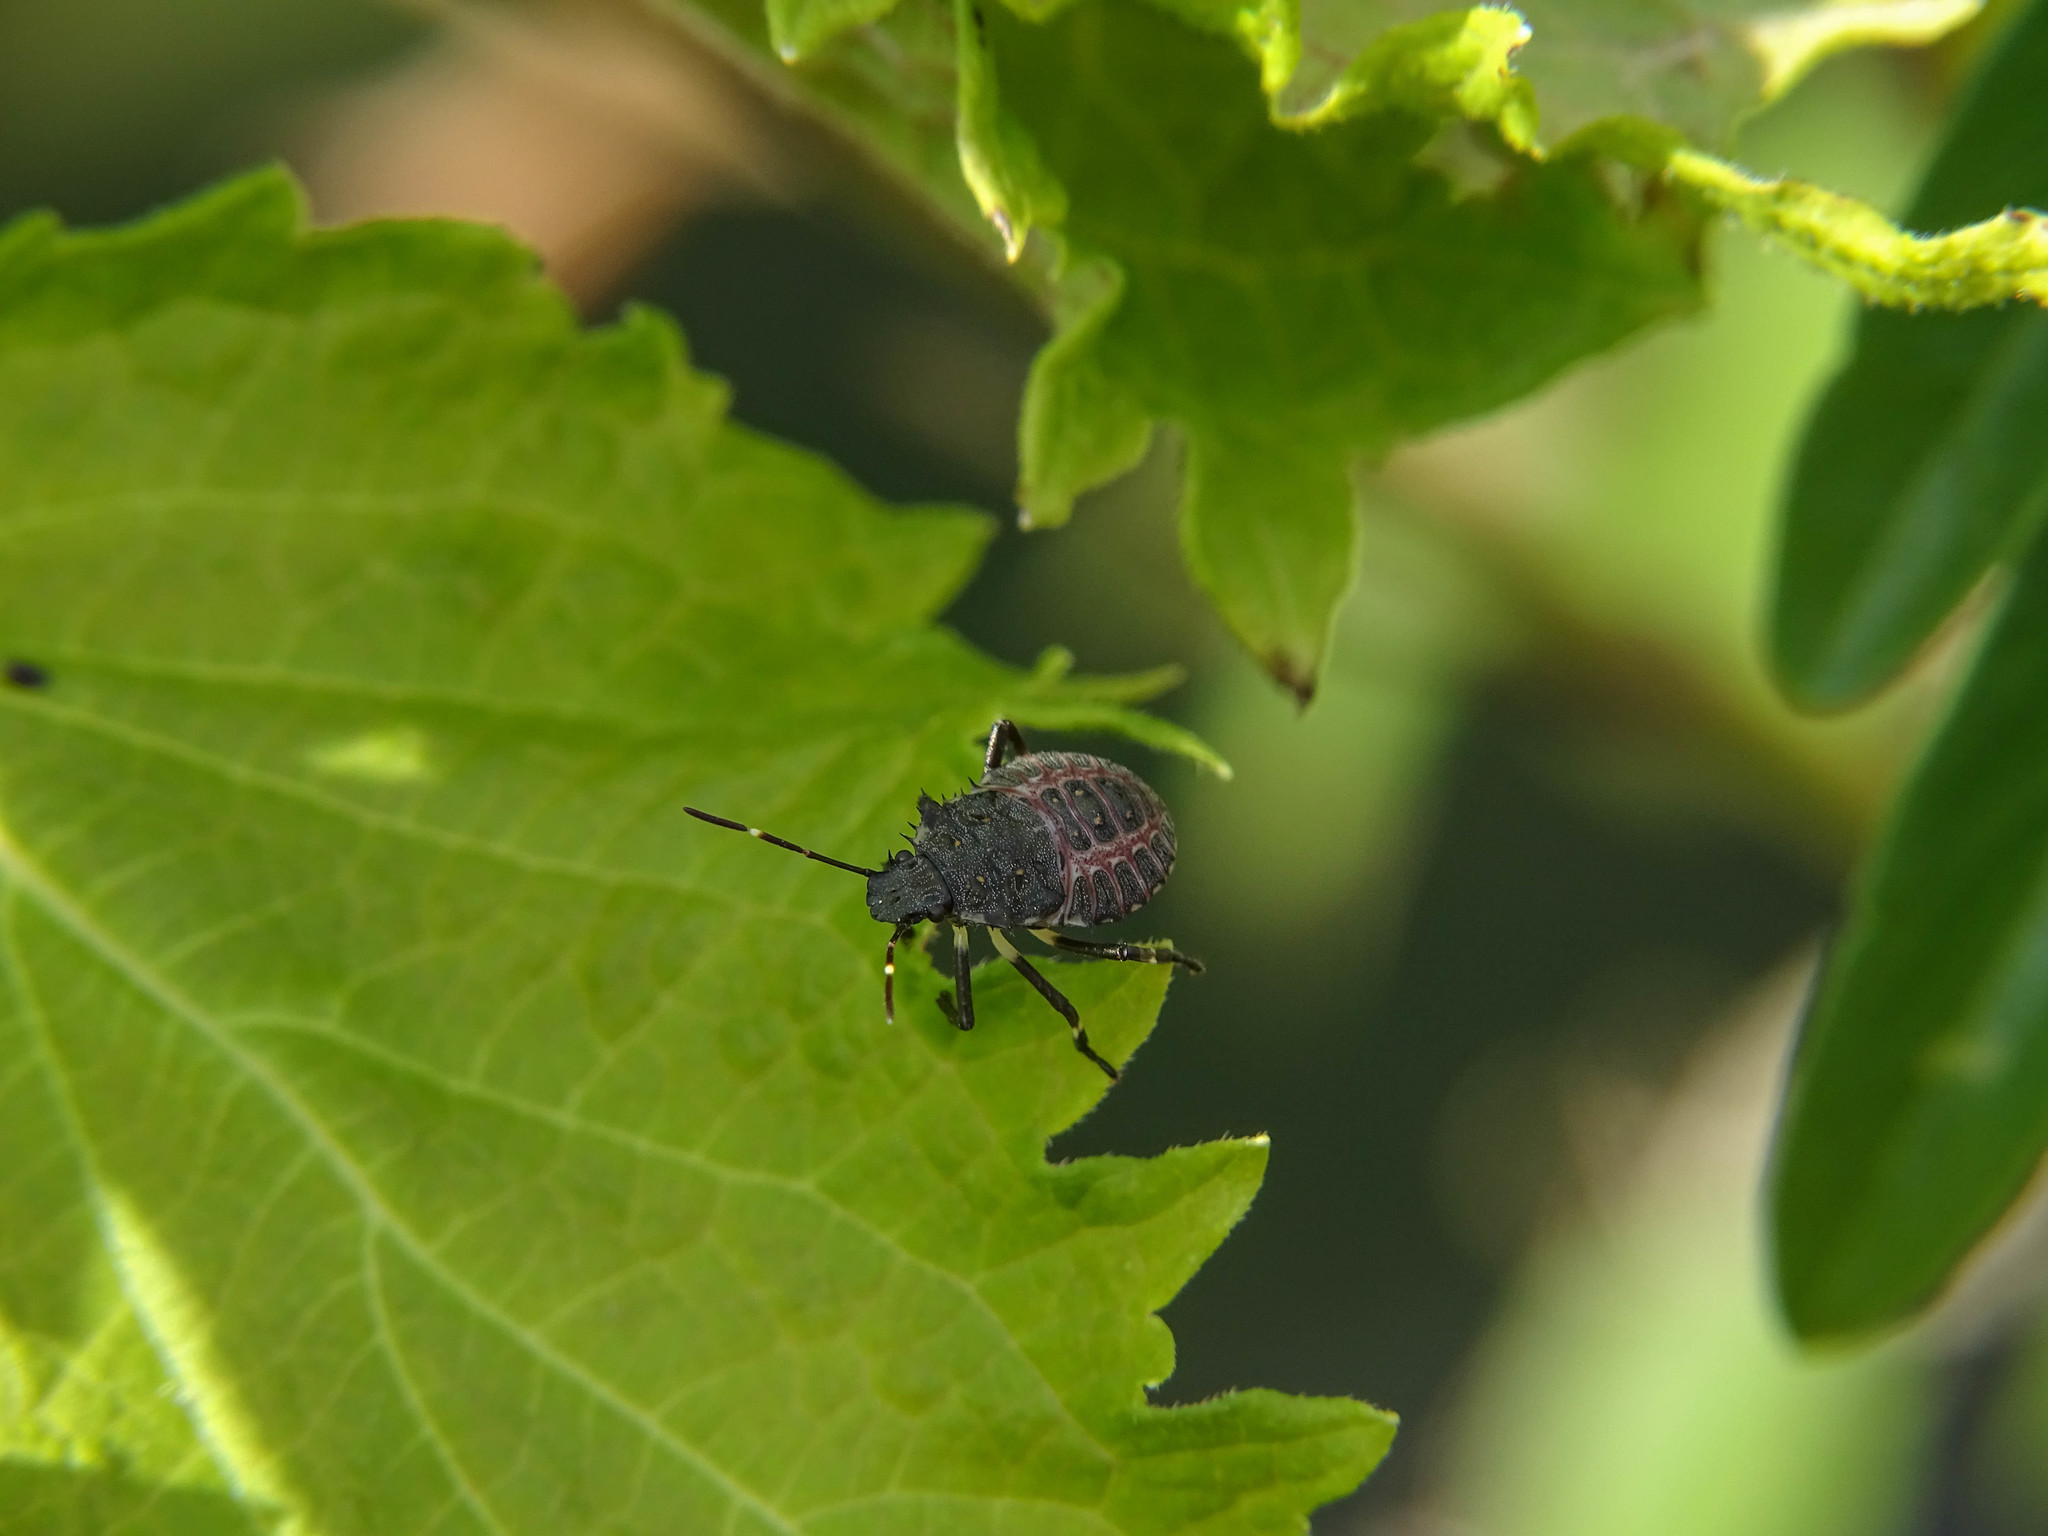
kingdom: Animalia
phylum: Arthropoda
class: Insecta
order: Hemiptera
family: Pentatomidae
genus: Halyomorpha
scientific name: Halyomorpha halys
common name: Brown marmorated stink bug
